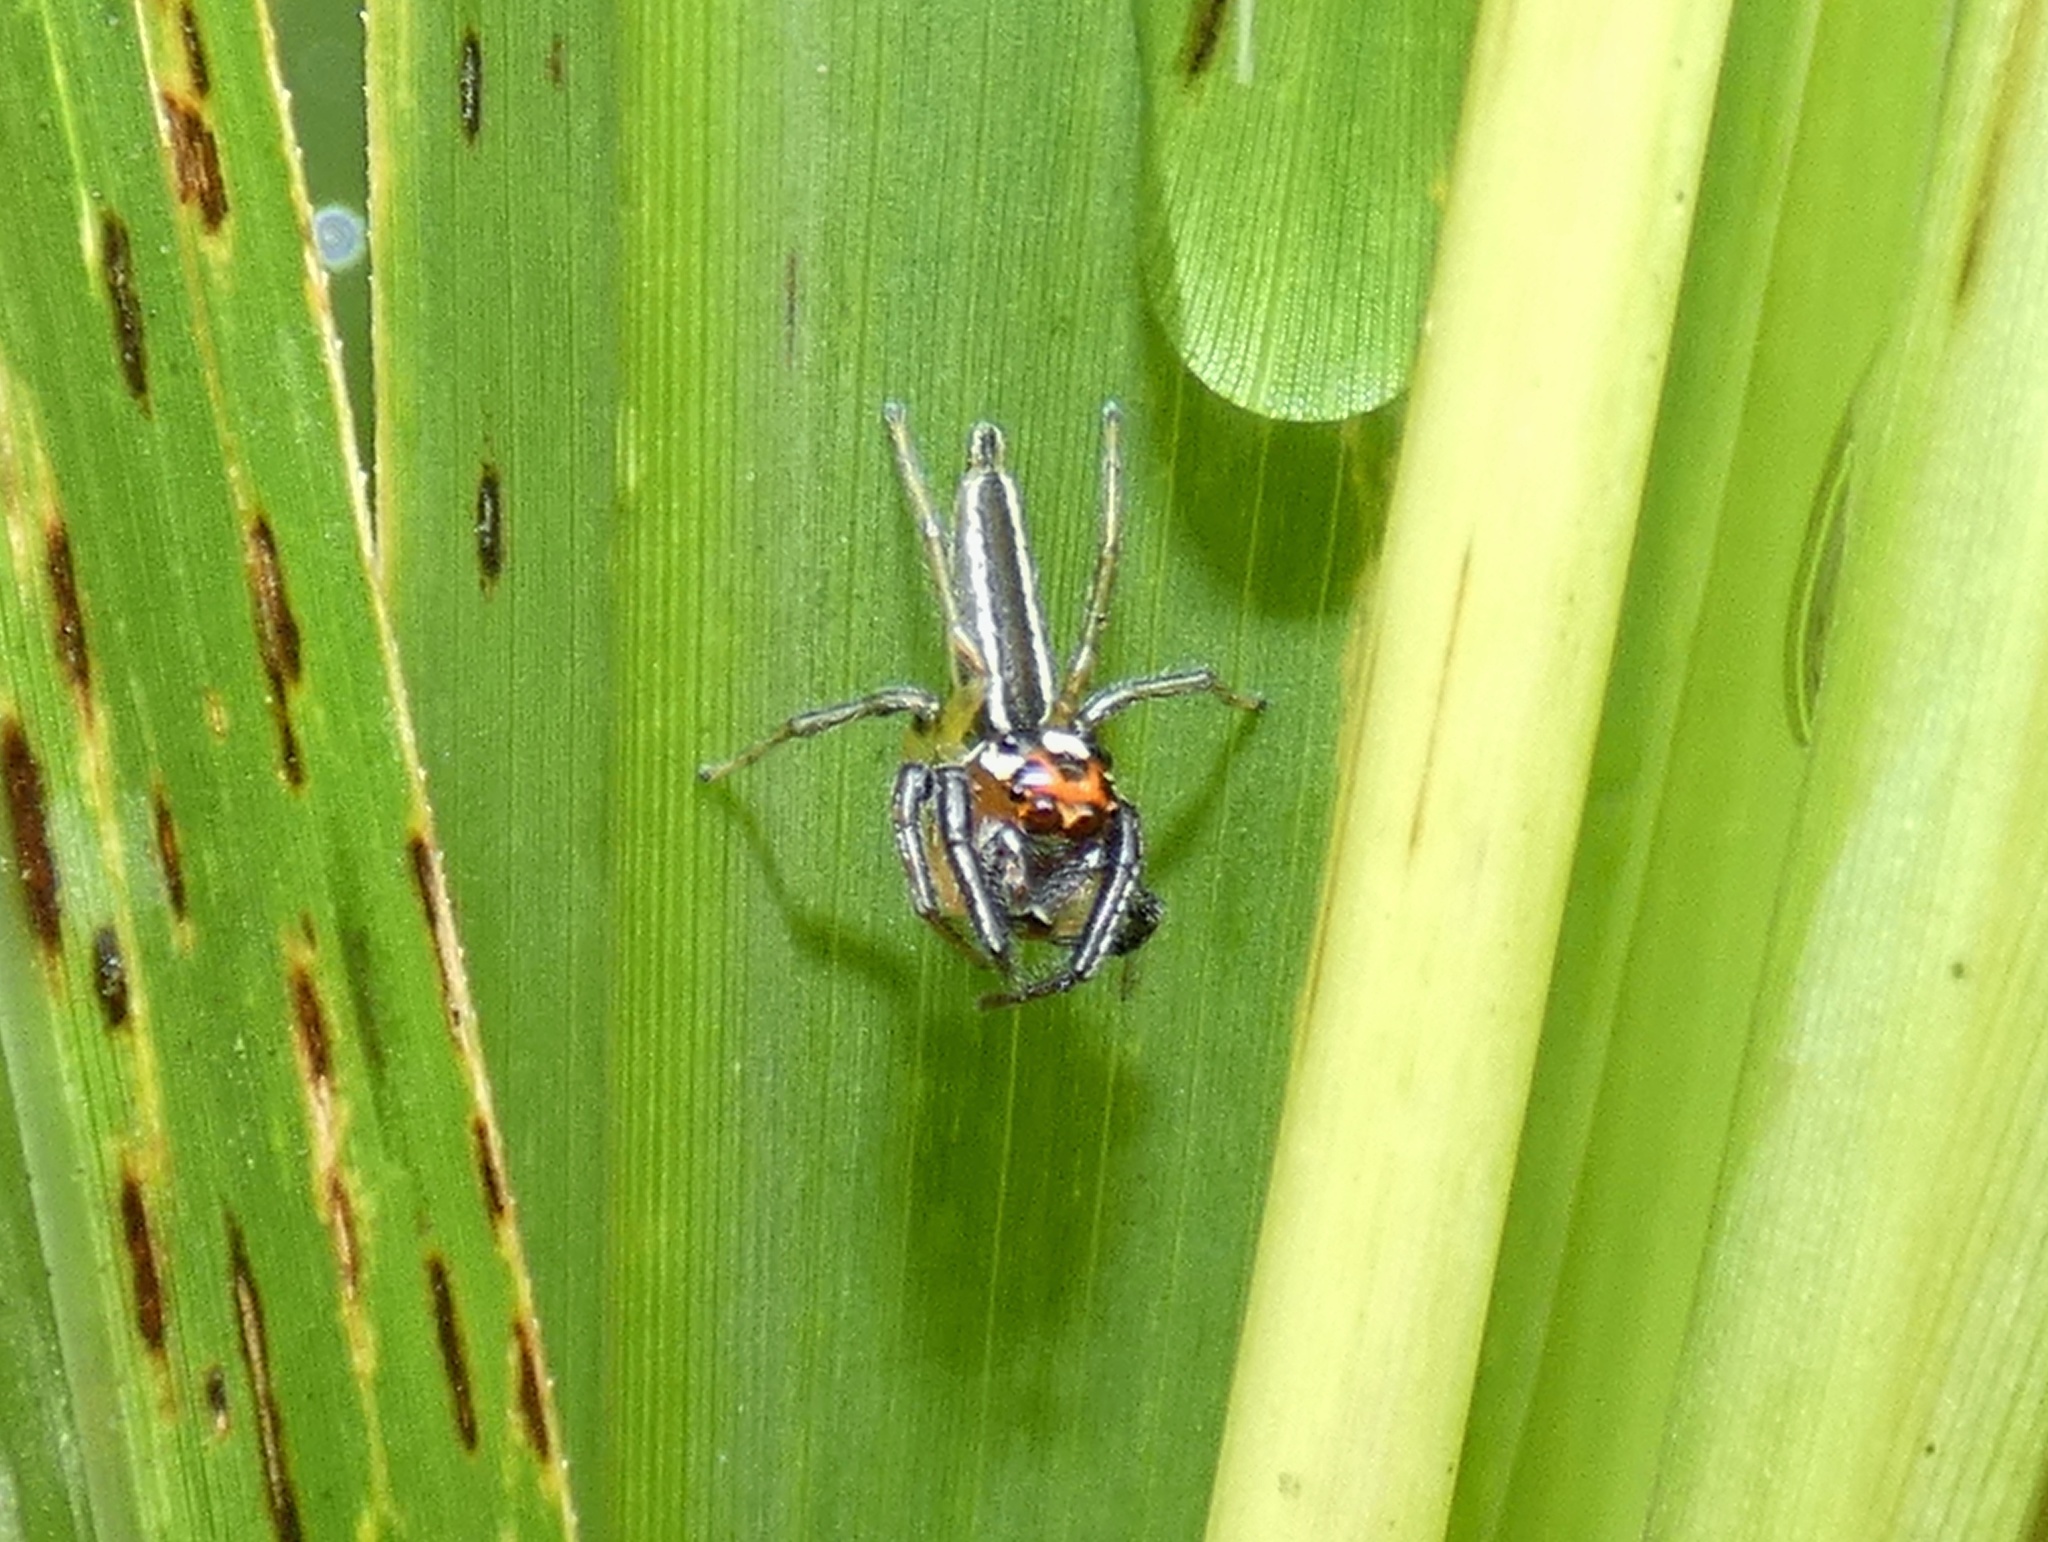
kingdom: Animalia
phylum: Arthropoda
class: Arachnida
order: Araneae
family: Salticidae
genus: Colonus
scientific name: Colonus sylvanus
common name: Jumping spiders
